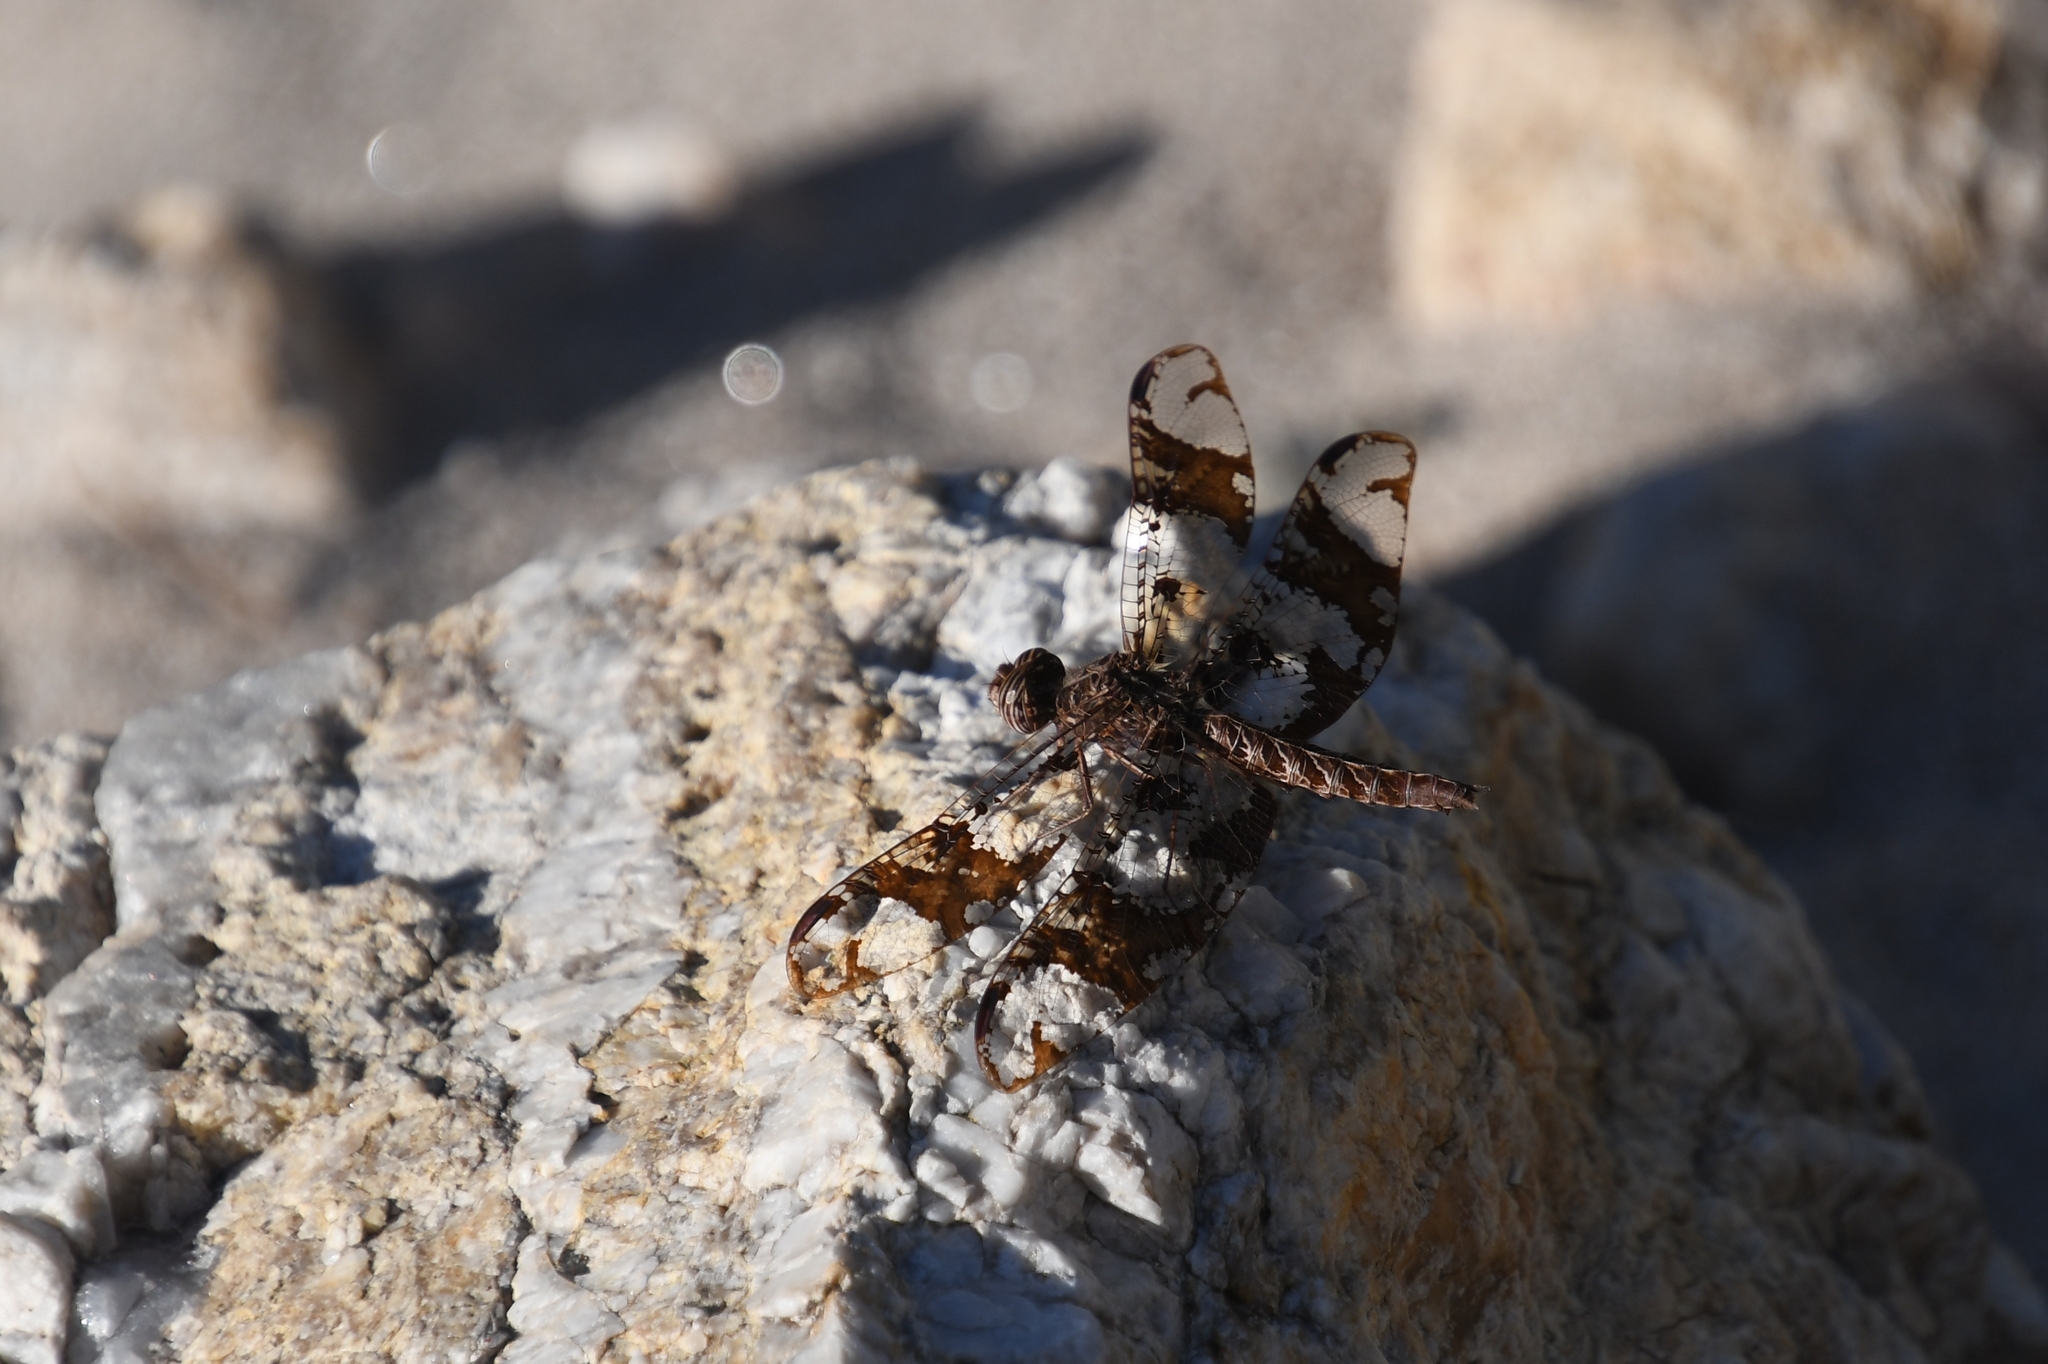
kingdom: Animalia
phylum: Arthropoda
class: Insecta
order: Odonata
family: Libellulidae
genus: Pseudoleon
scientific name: Pseudoleon superbus
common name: Filigree skimmer
